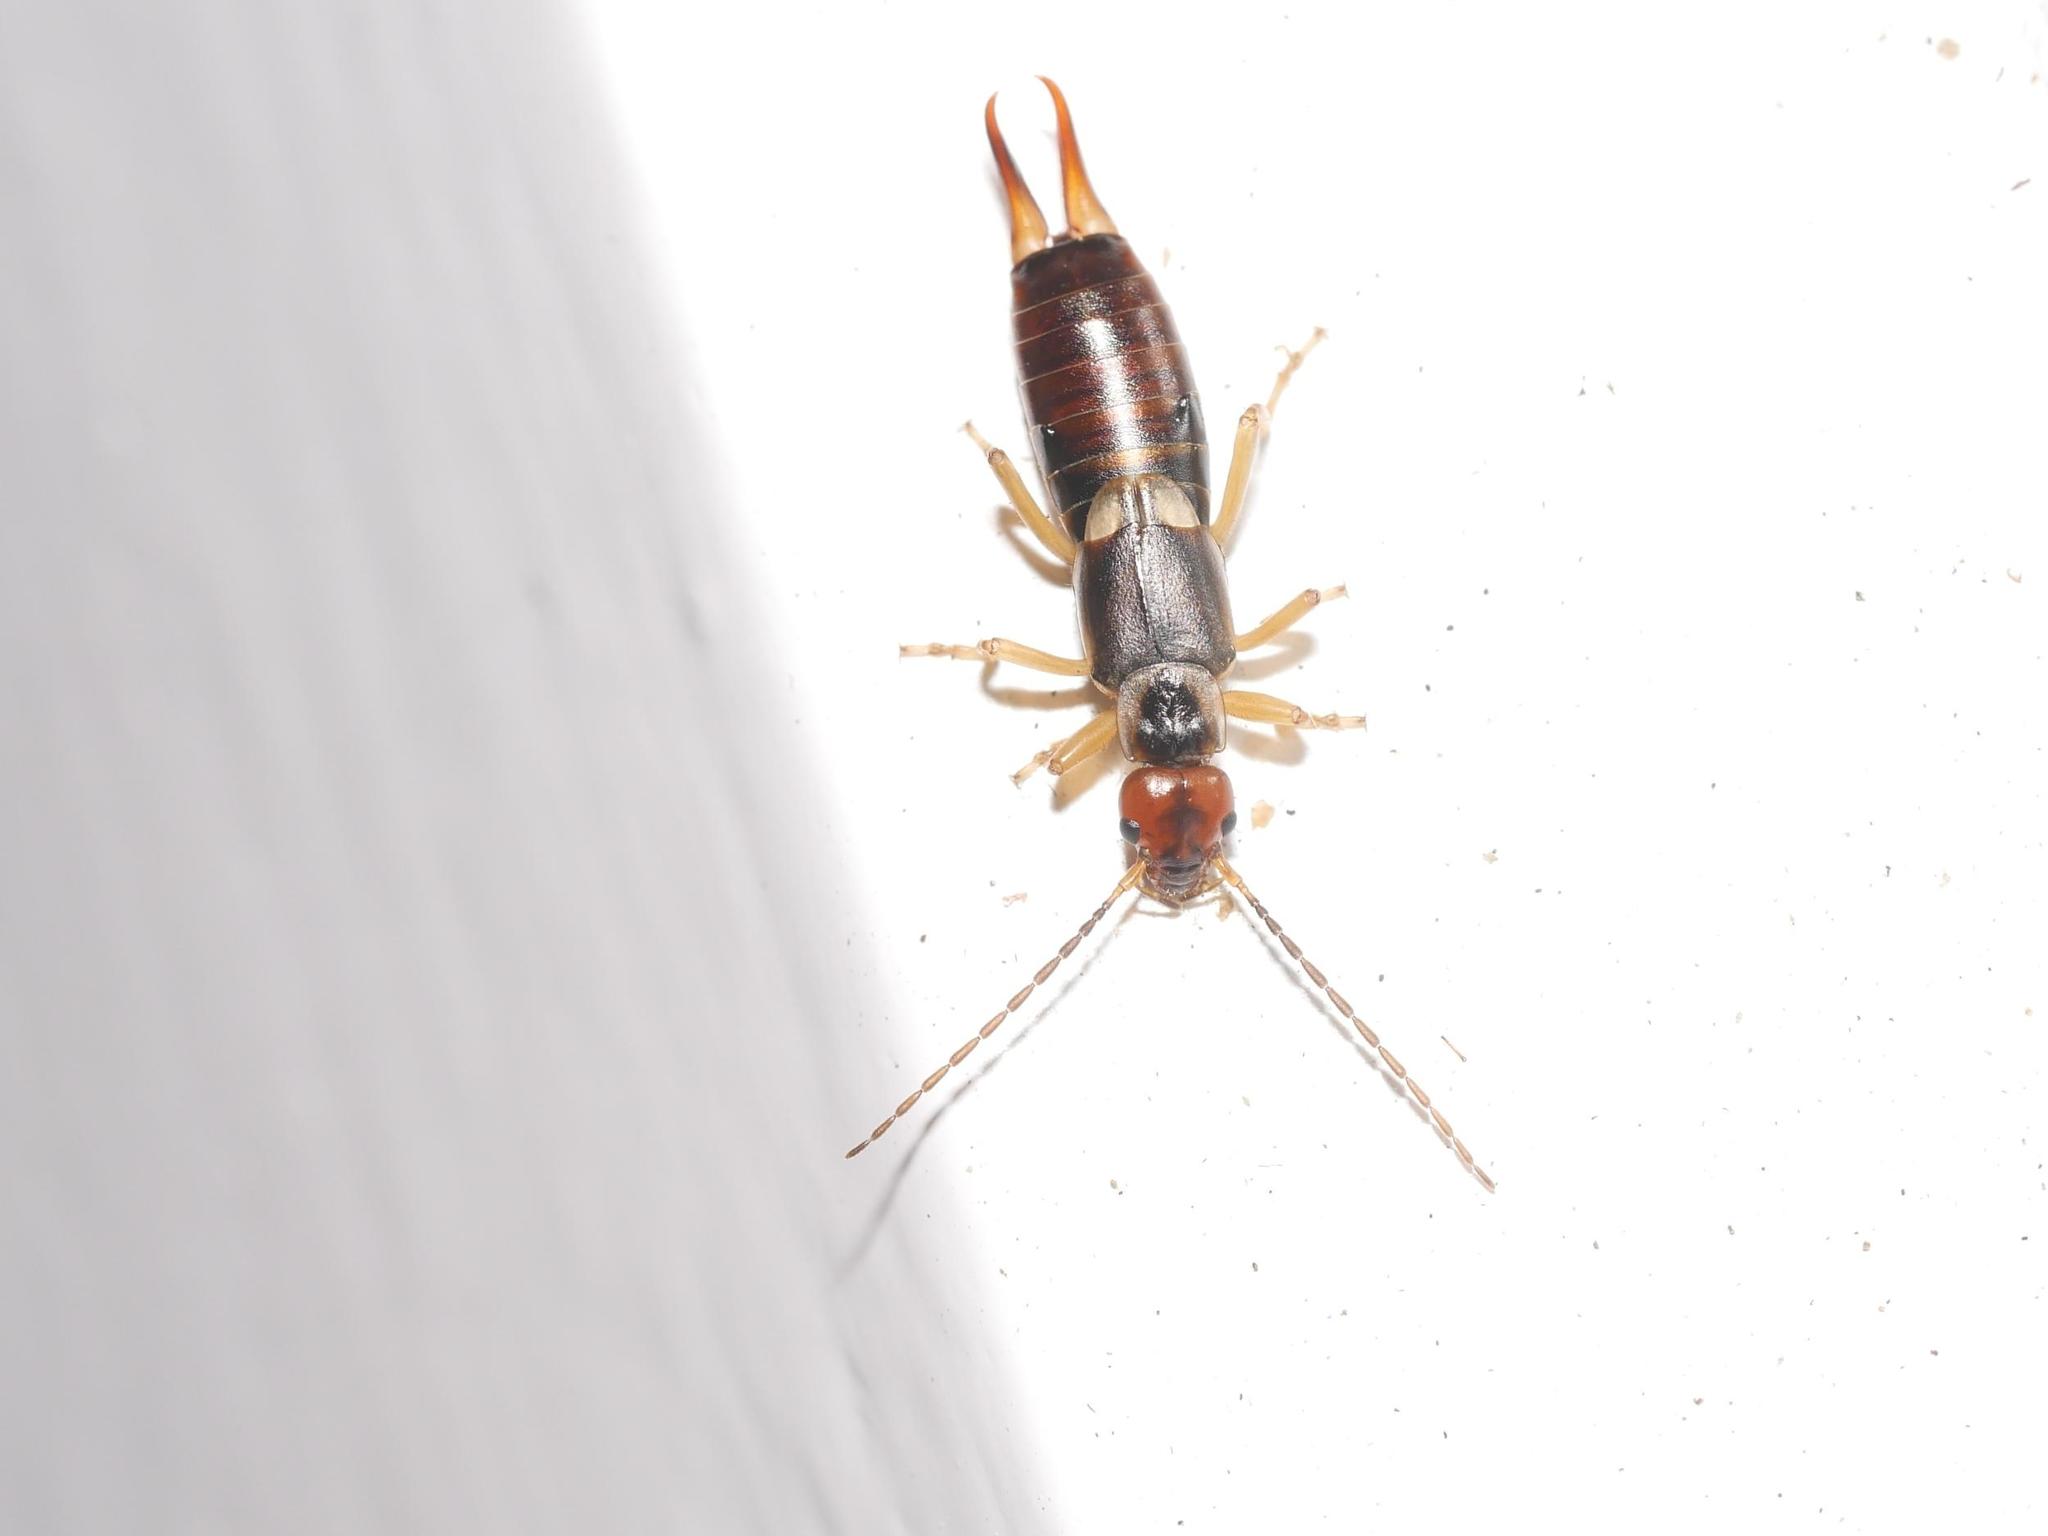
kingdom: Animalia
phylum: Arthropoda
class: Insecta
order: Dermaptera
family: Forficulidae
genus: Forficula
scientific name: Forficula
